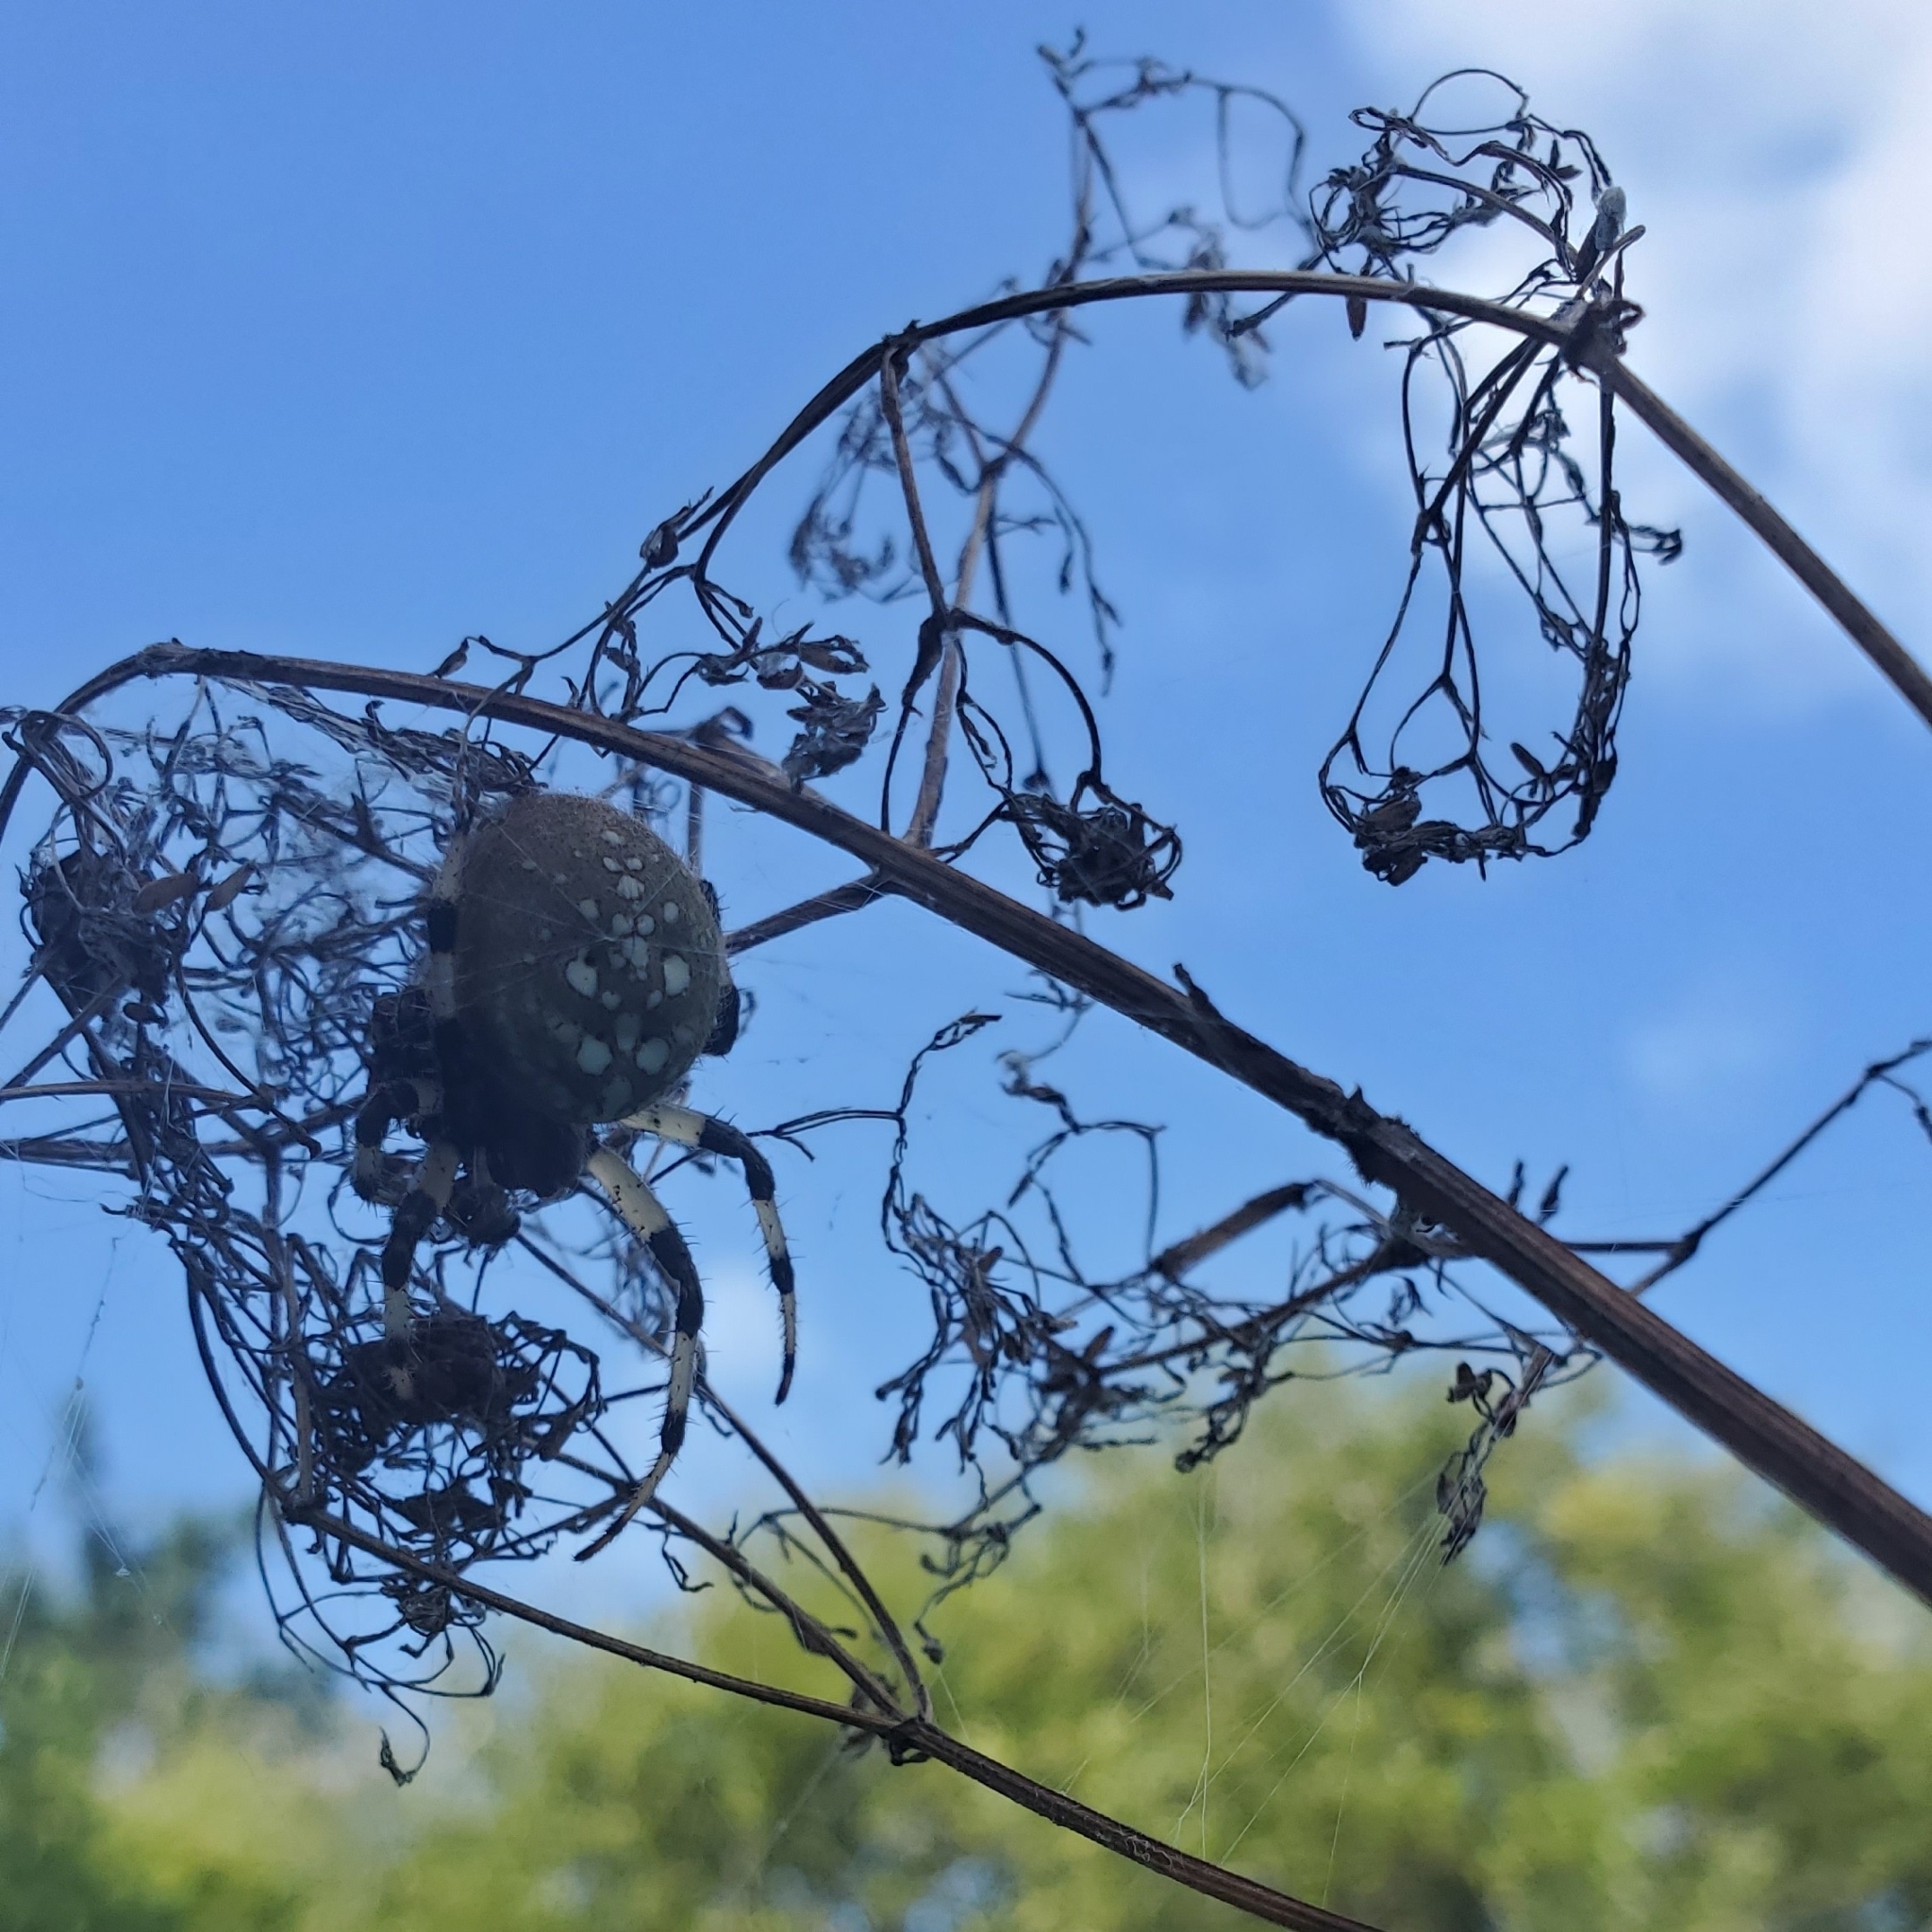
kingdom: Animalia
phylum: Arthropoda
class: Arachnida
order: Araneae
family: Araneidae
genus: Araneus
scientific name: Araneus trifolium
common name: Shamrock orbweaver
